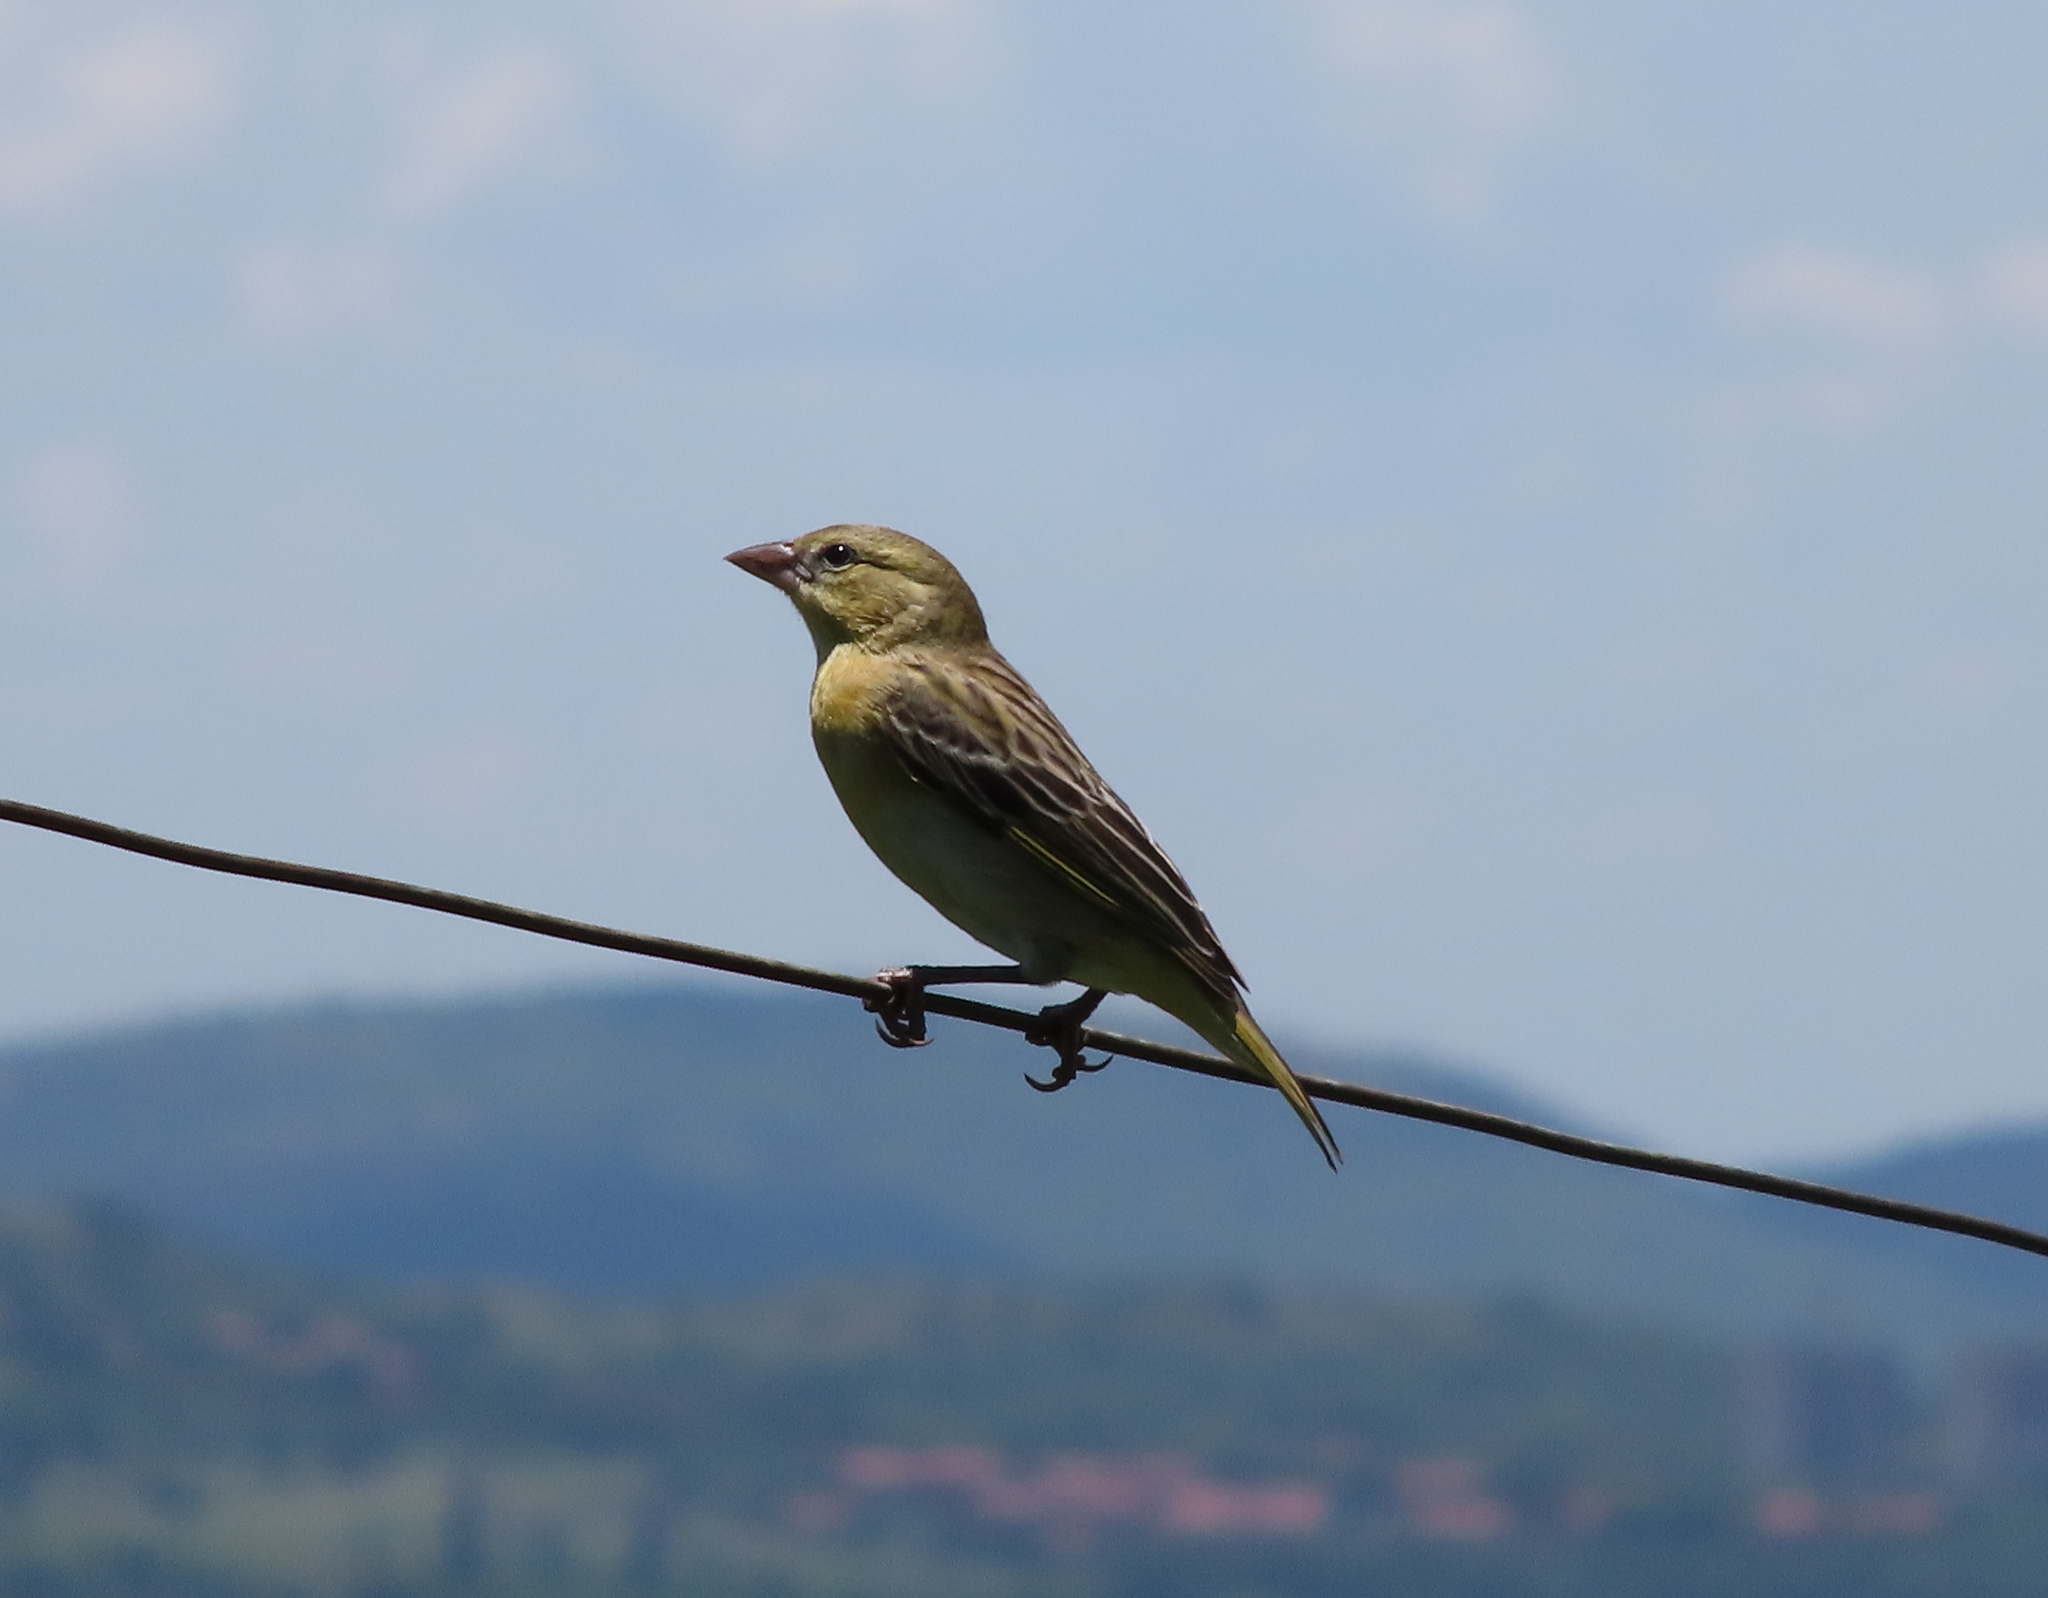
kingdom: Animalia
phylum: Chordata
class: Aves
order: Passeriformes
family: Ploceidae
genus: Ploceus
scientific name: Ploceus velatus
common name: Southern masked weaver
